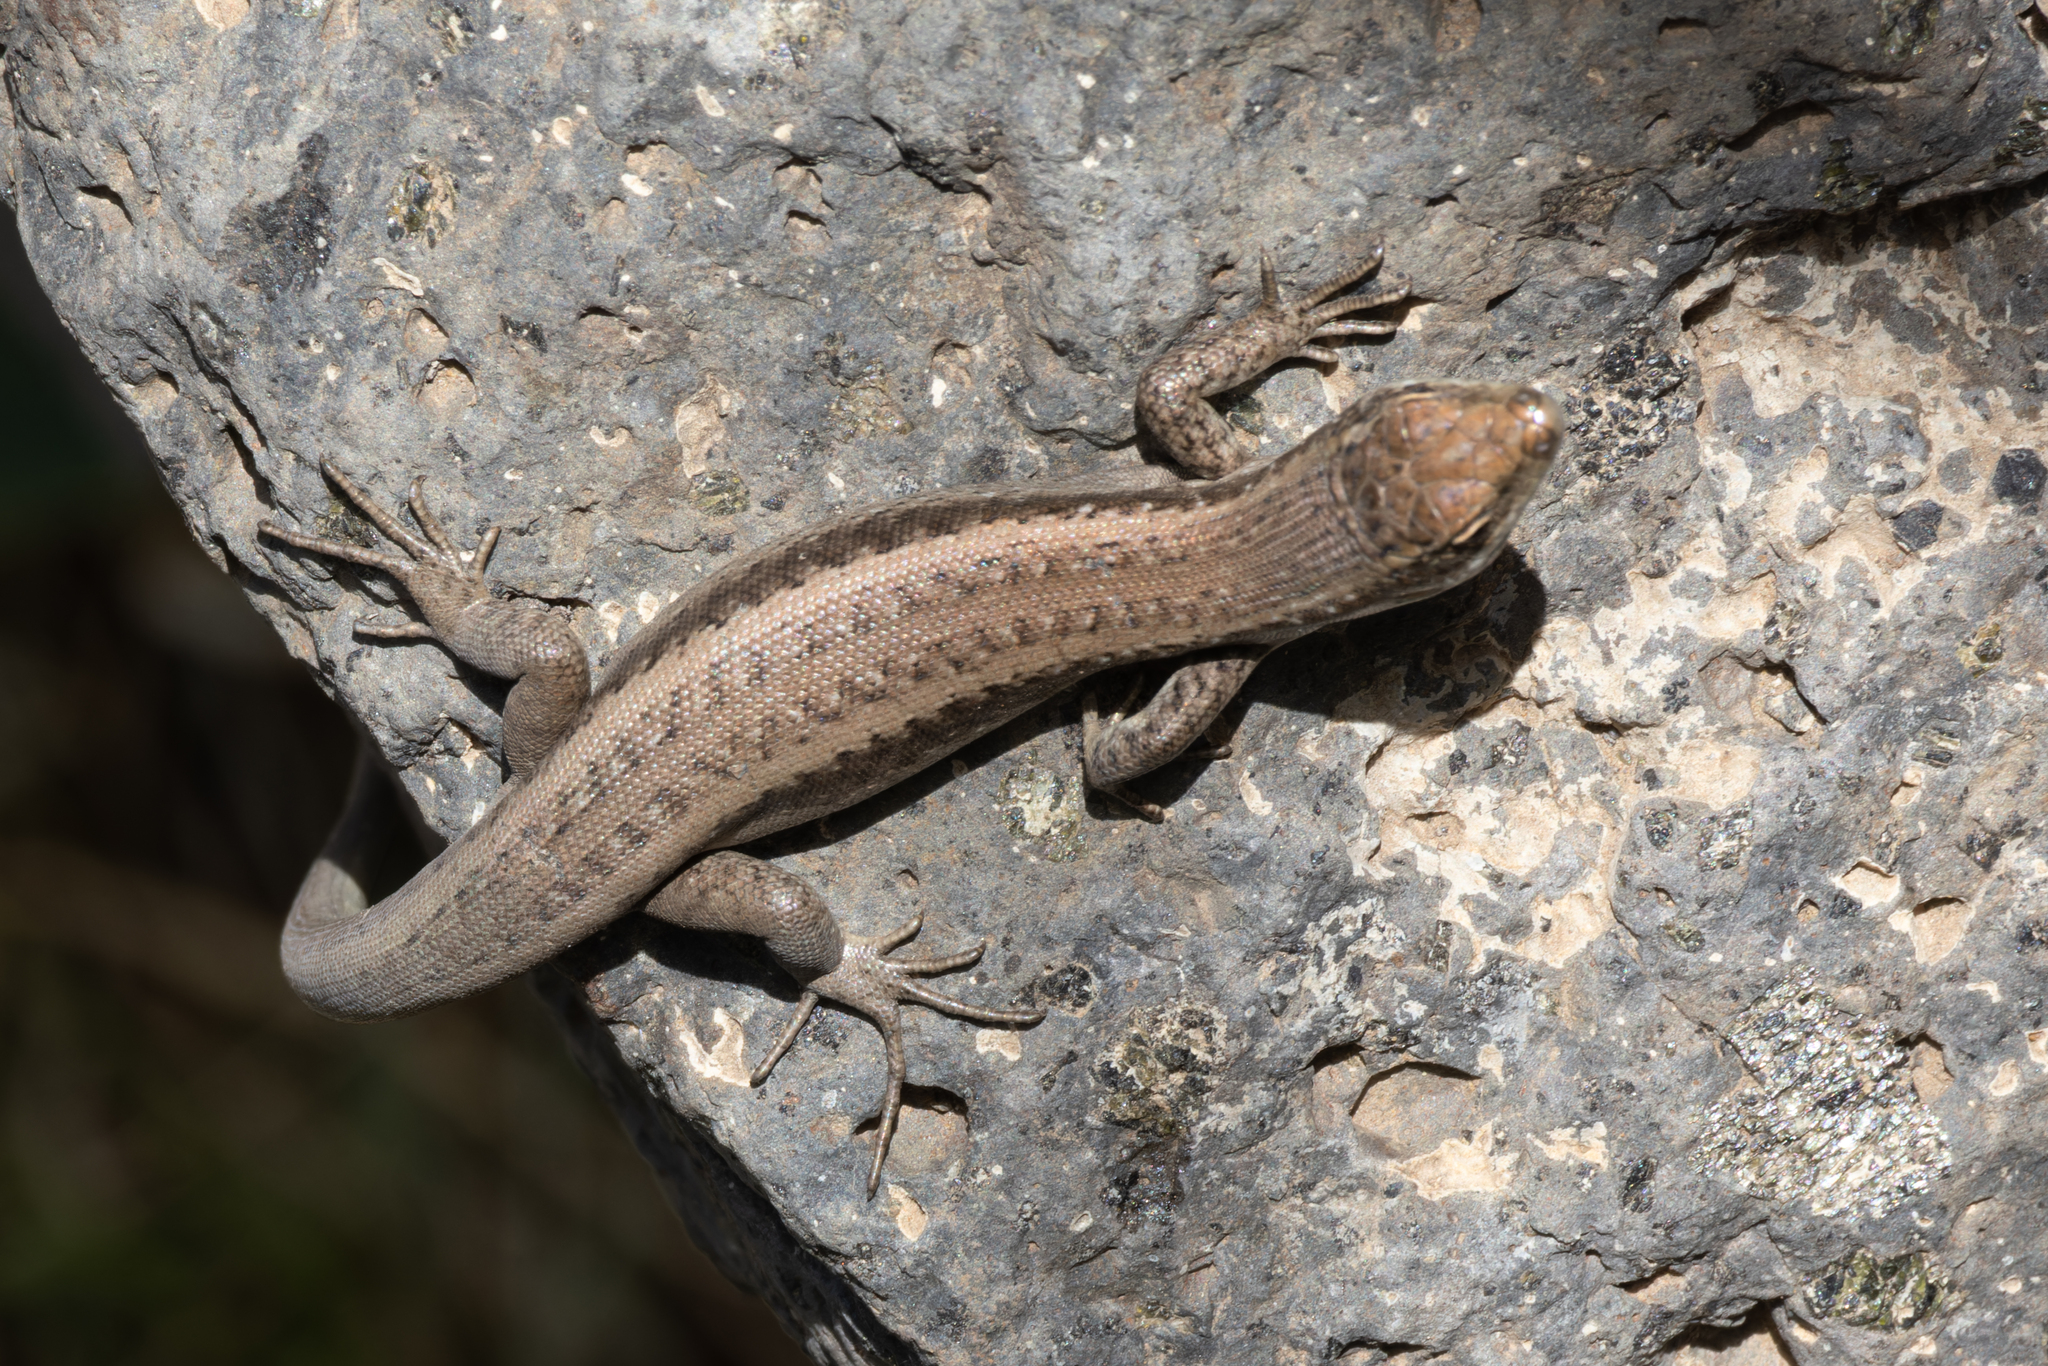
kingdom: Animalia
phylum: Chordata
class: Squamata
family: Scincidae
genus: Chioninia
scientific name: Chioninia fogoensis
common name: Fogo's mabuya
